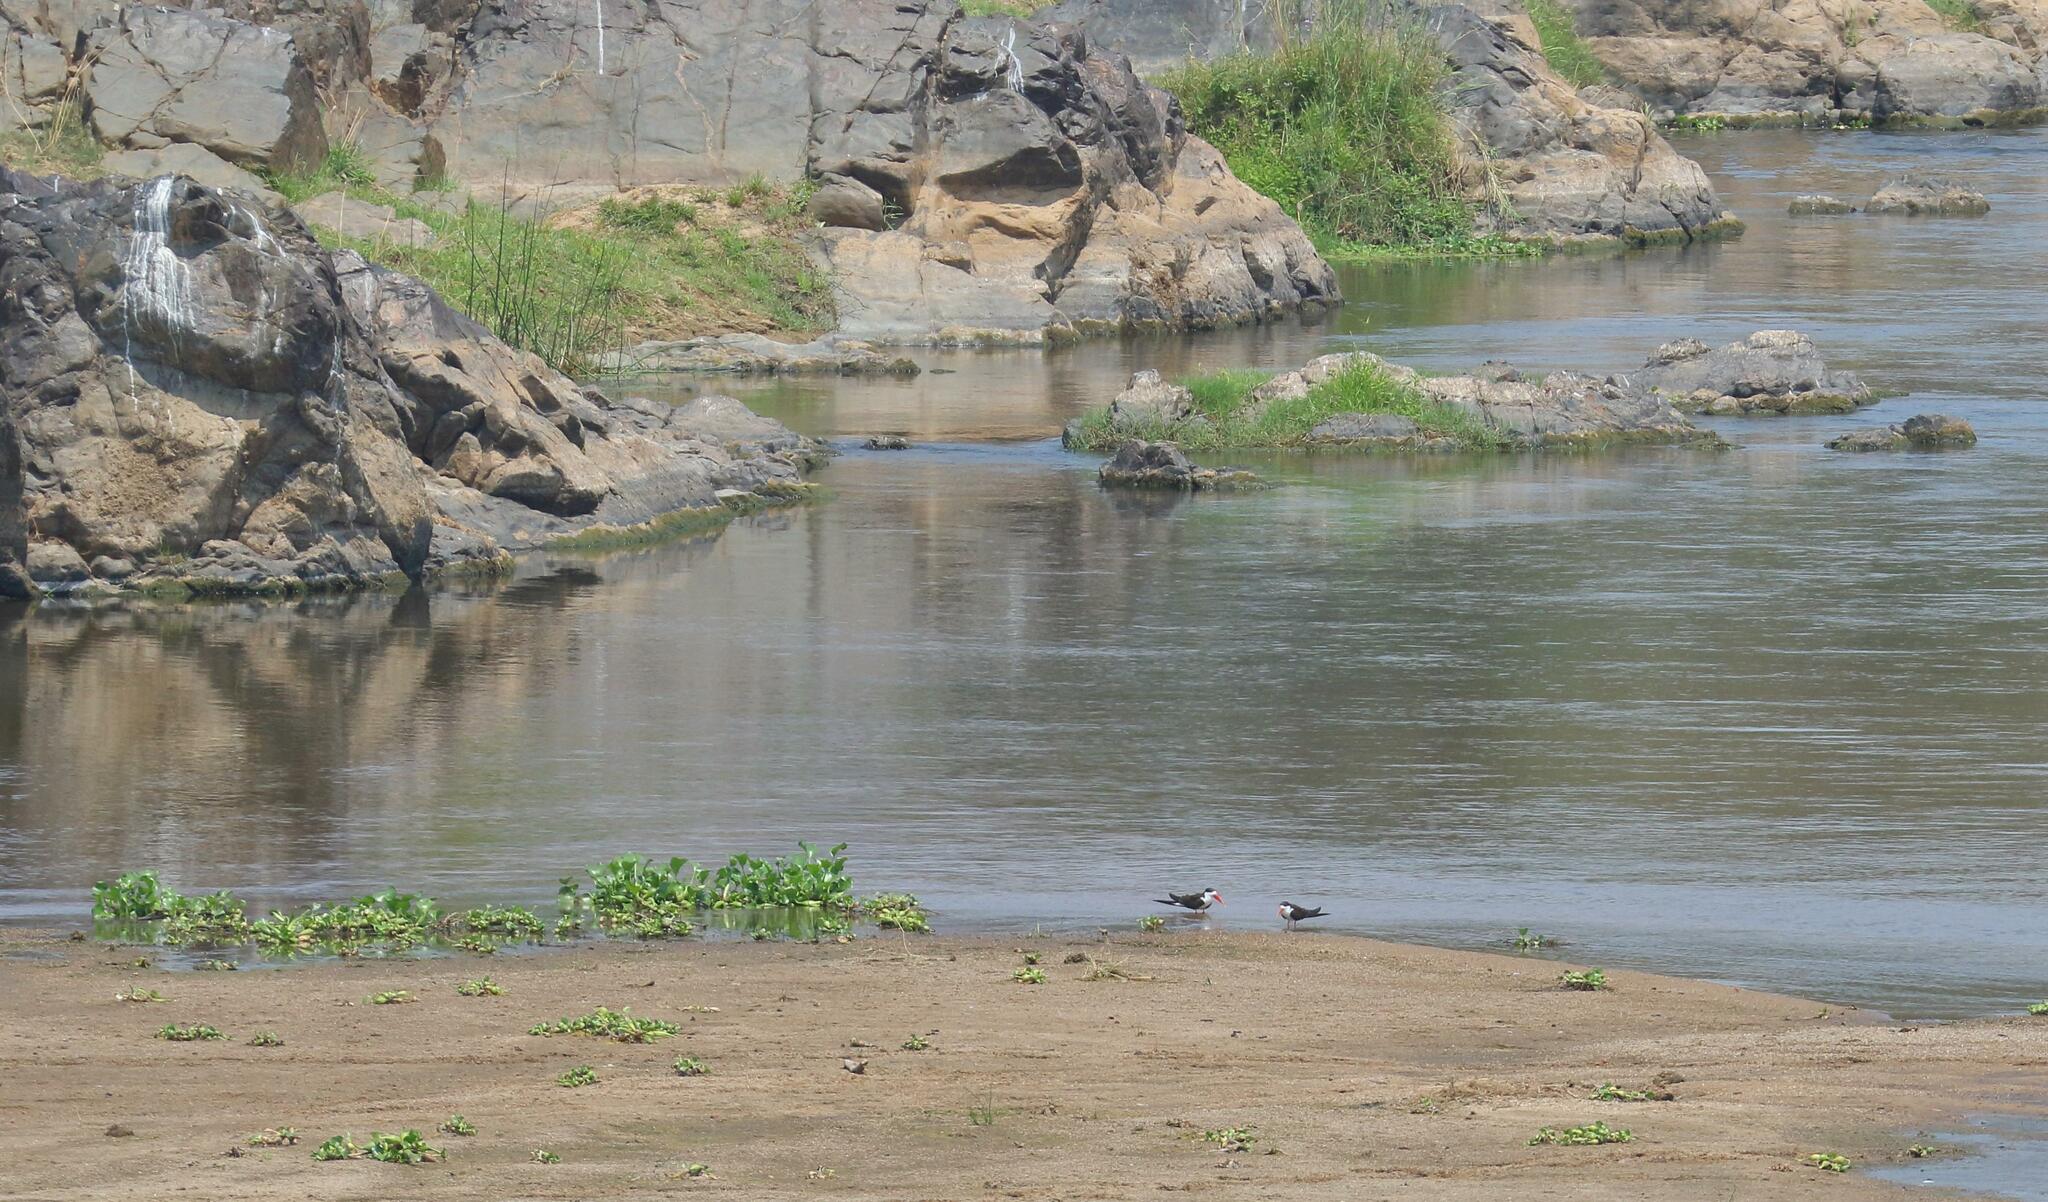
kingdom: Animalia
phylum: Chordata
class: Aves
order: Charadriiformes
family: Laridae
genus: Rynchops
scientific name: Rynchops flavirostris
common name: African skimmer
